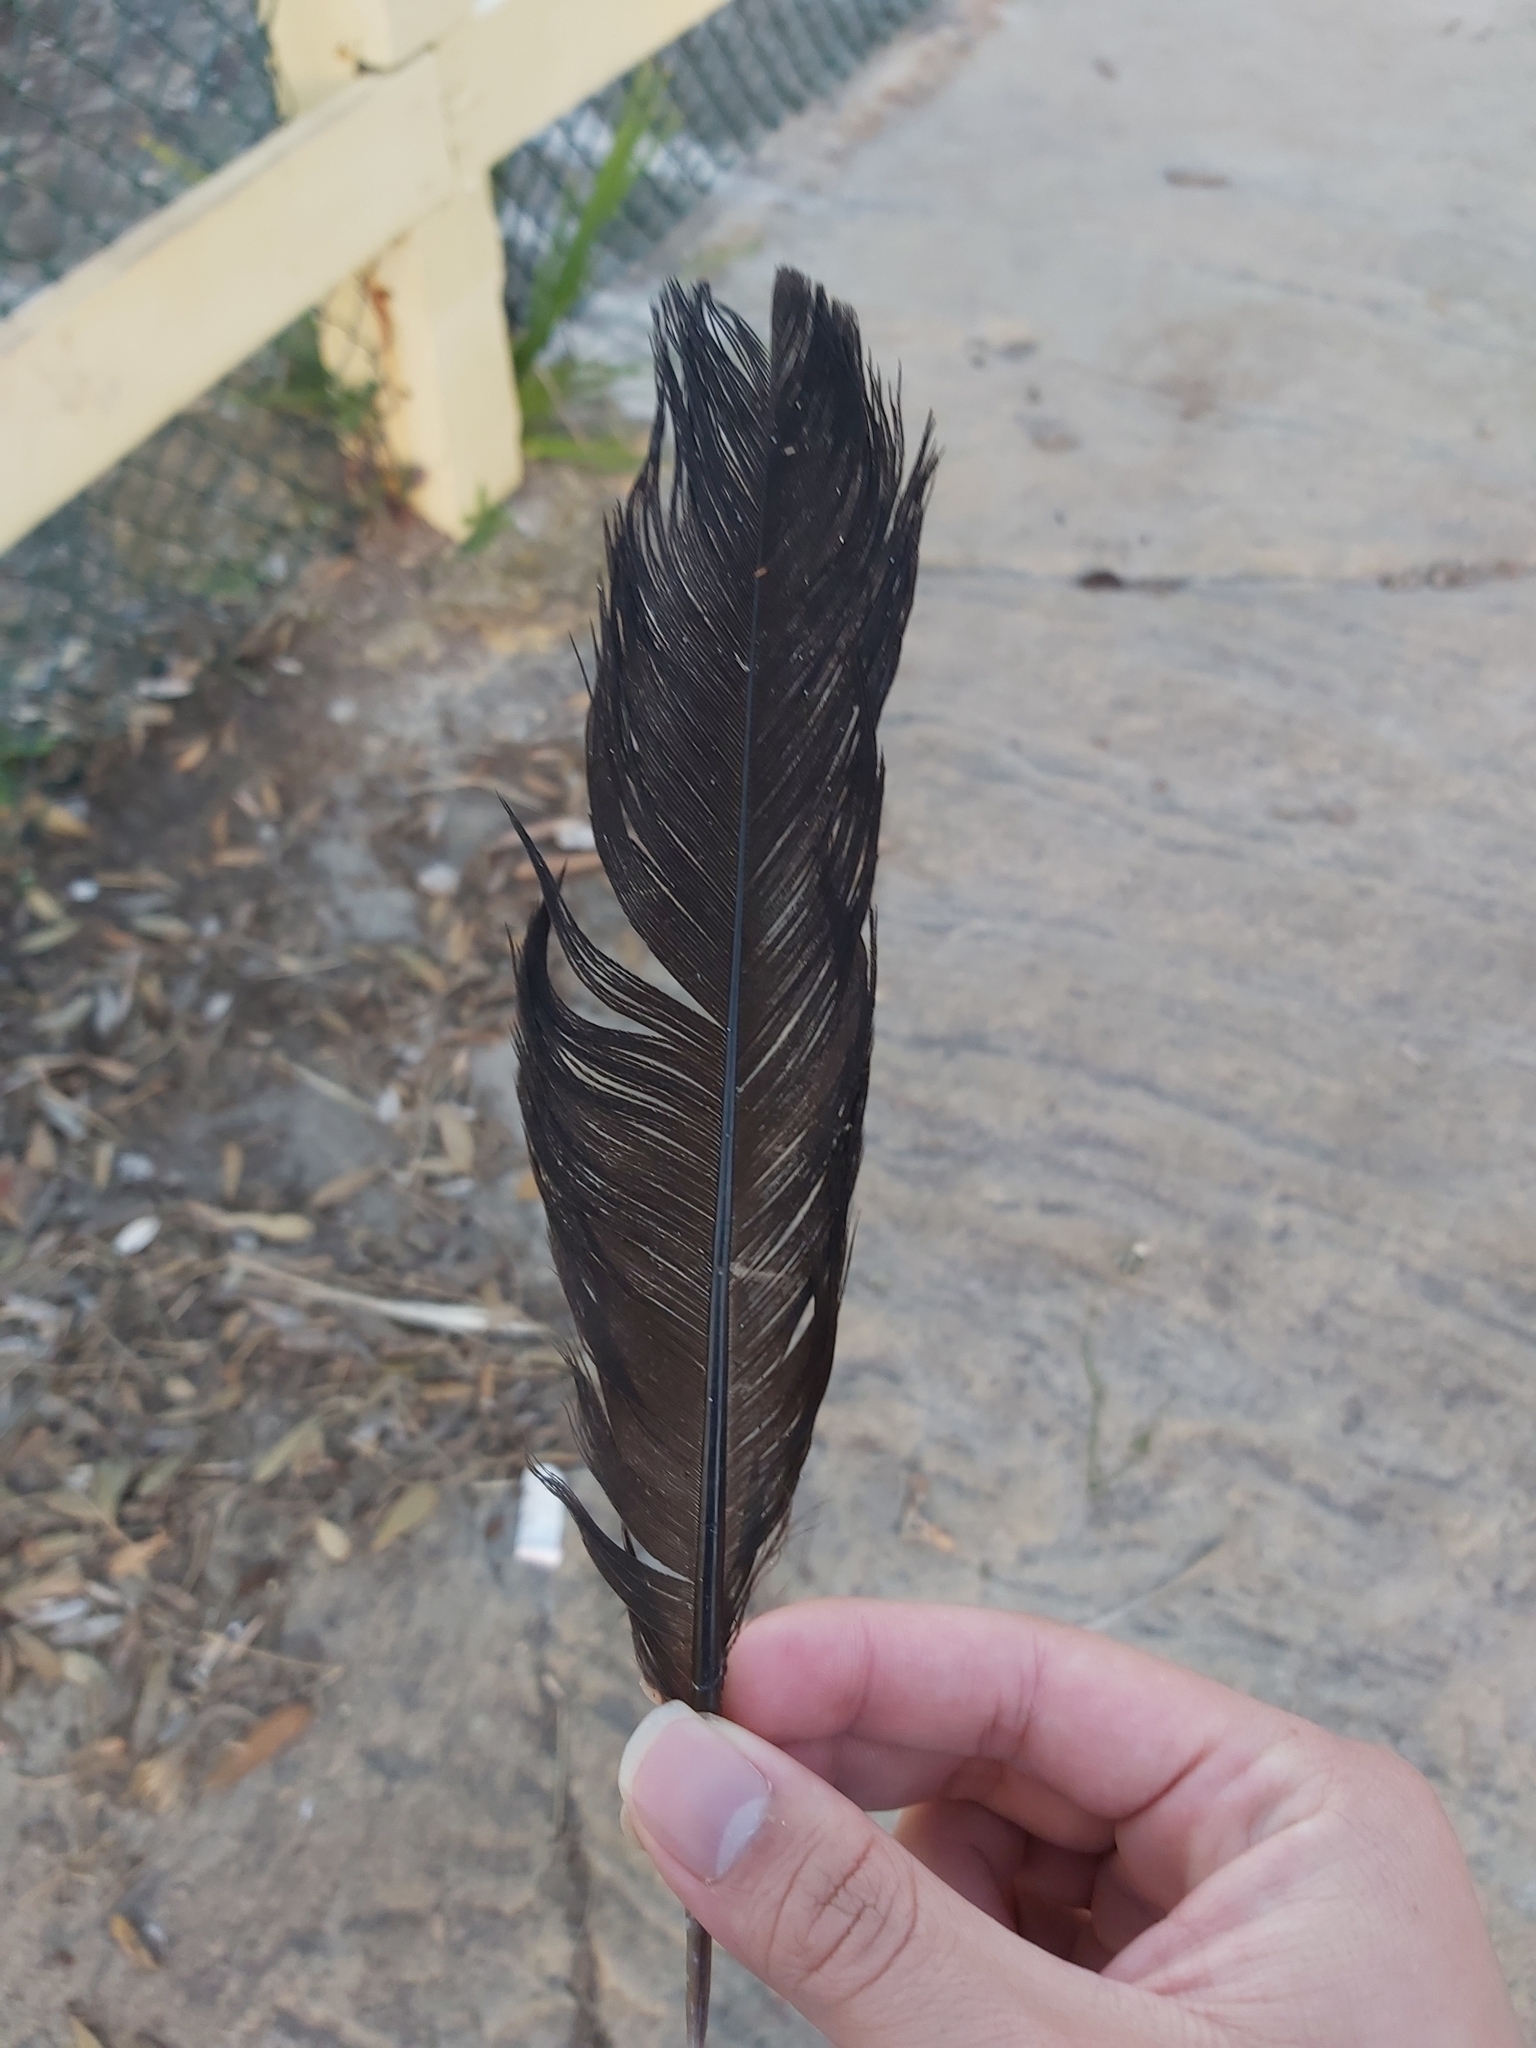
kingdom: Animalia
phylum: Chordata
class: Aves
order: Galliformes
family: Megapodiidae
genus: Alectura
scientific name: Alectura lathami
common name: Australian brushturkey
